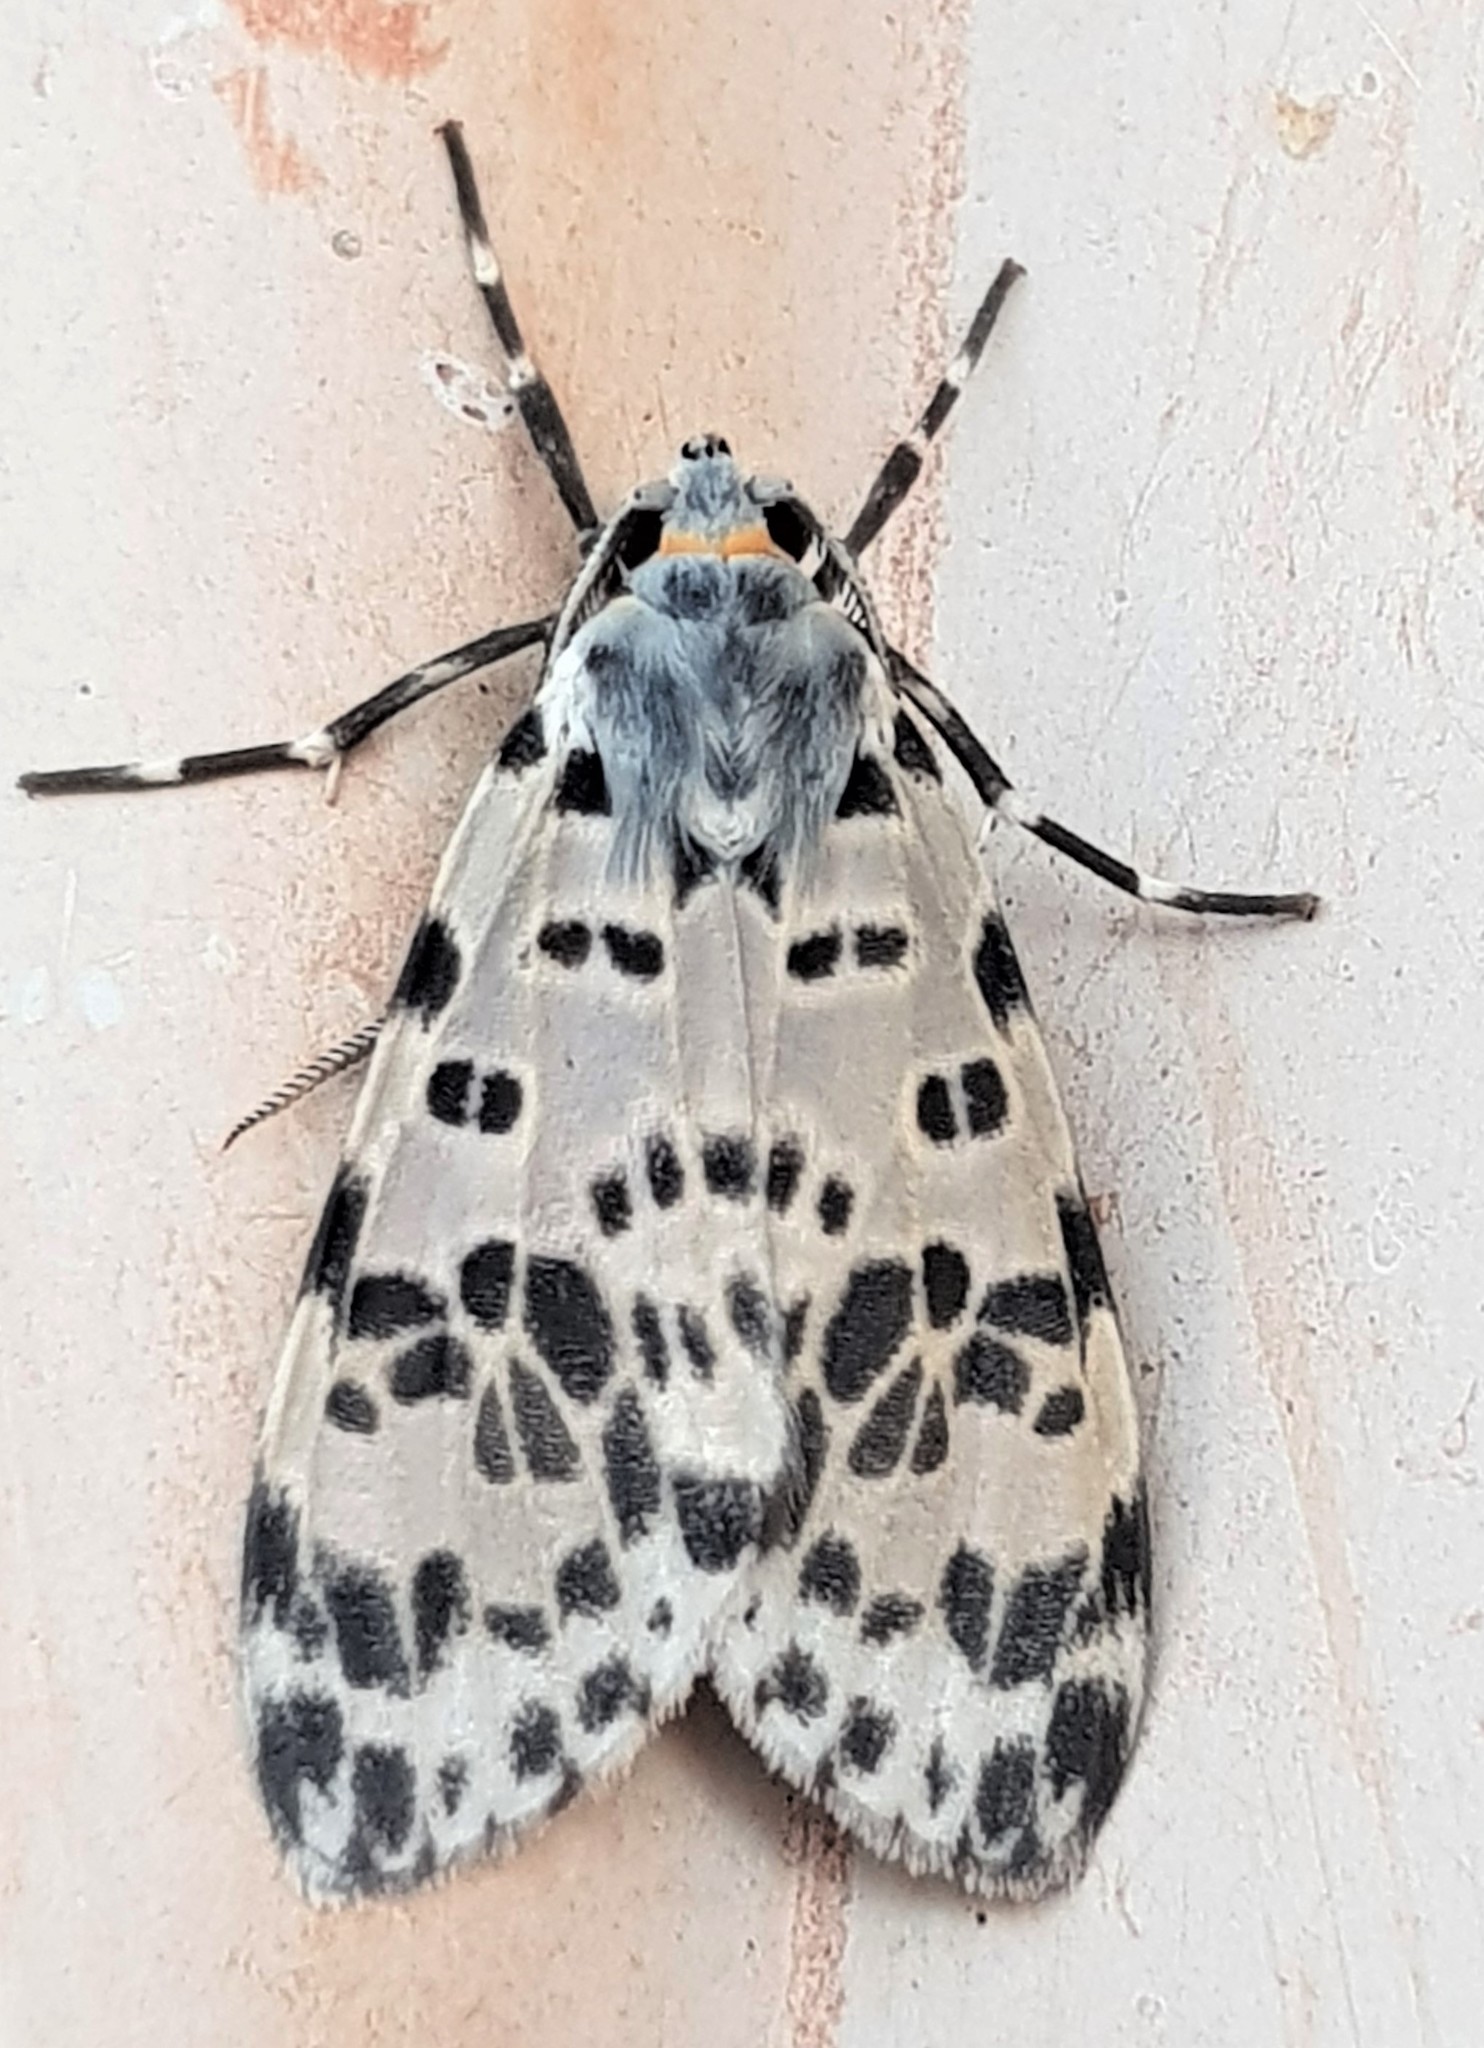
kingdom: Animalia
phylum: Arthropoda
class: Insecta
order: Lepidoptera
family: Erebidae
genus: Eucereon
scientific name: Eucereon aoris
